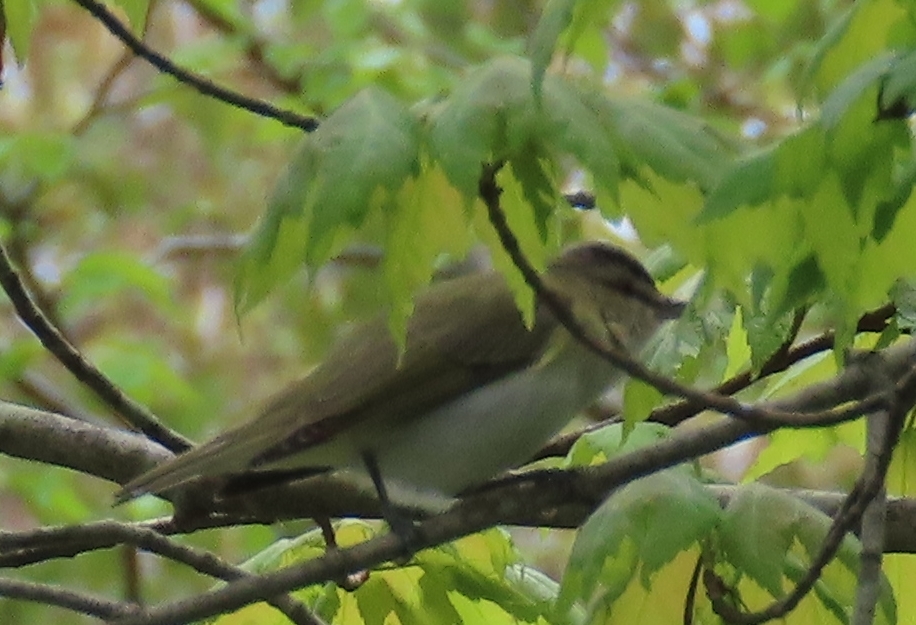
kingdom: Animalia
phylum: Chordata
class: Aves
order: Passeriformes
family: Vireonidae
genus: Vireo
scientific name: Vireo olivaceus
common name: Red-eyed vireo
